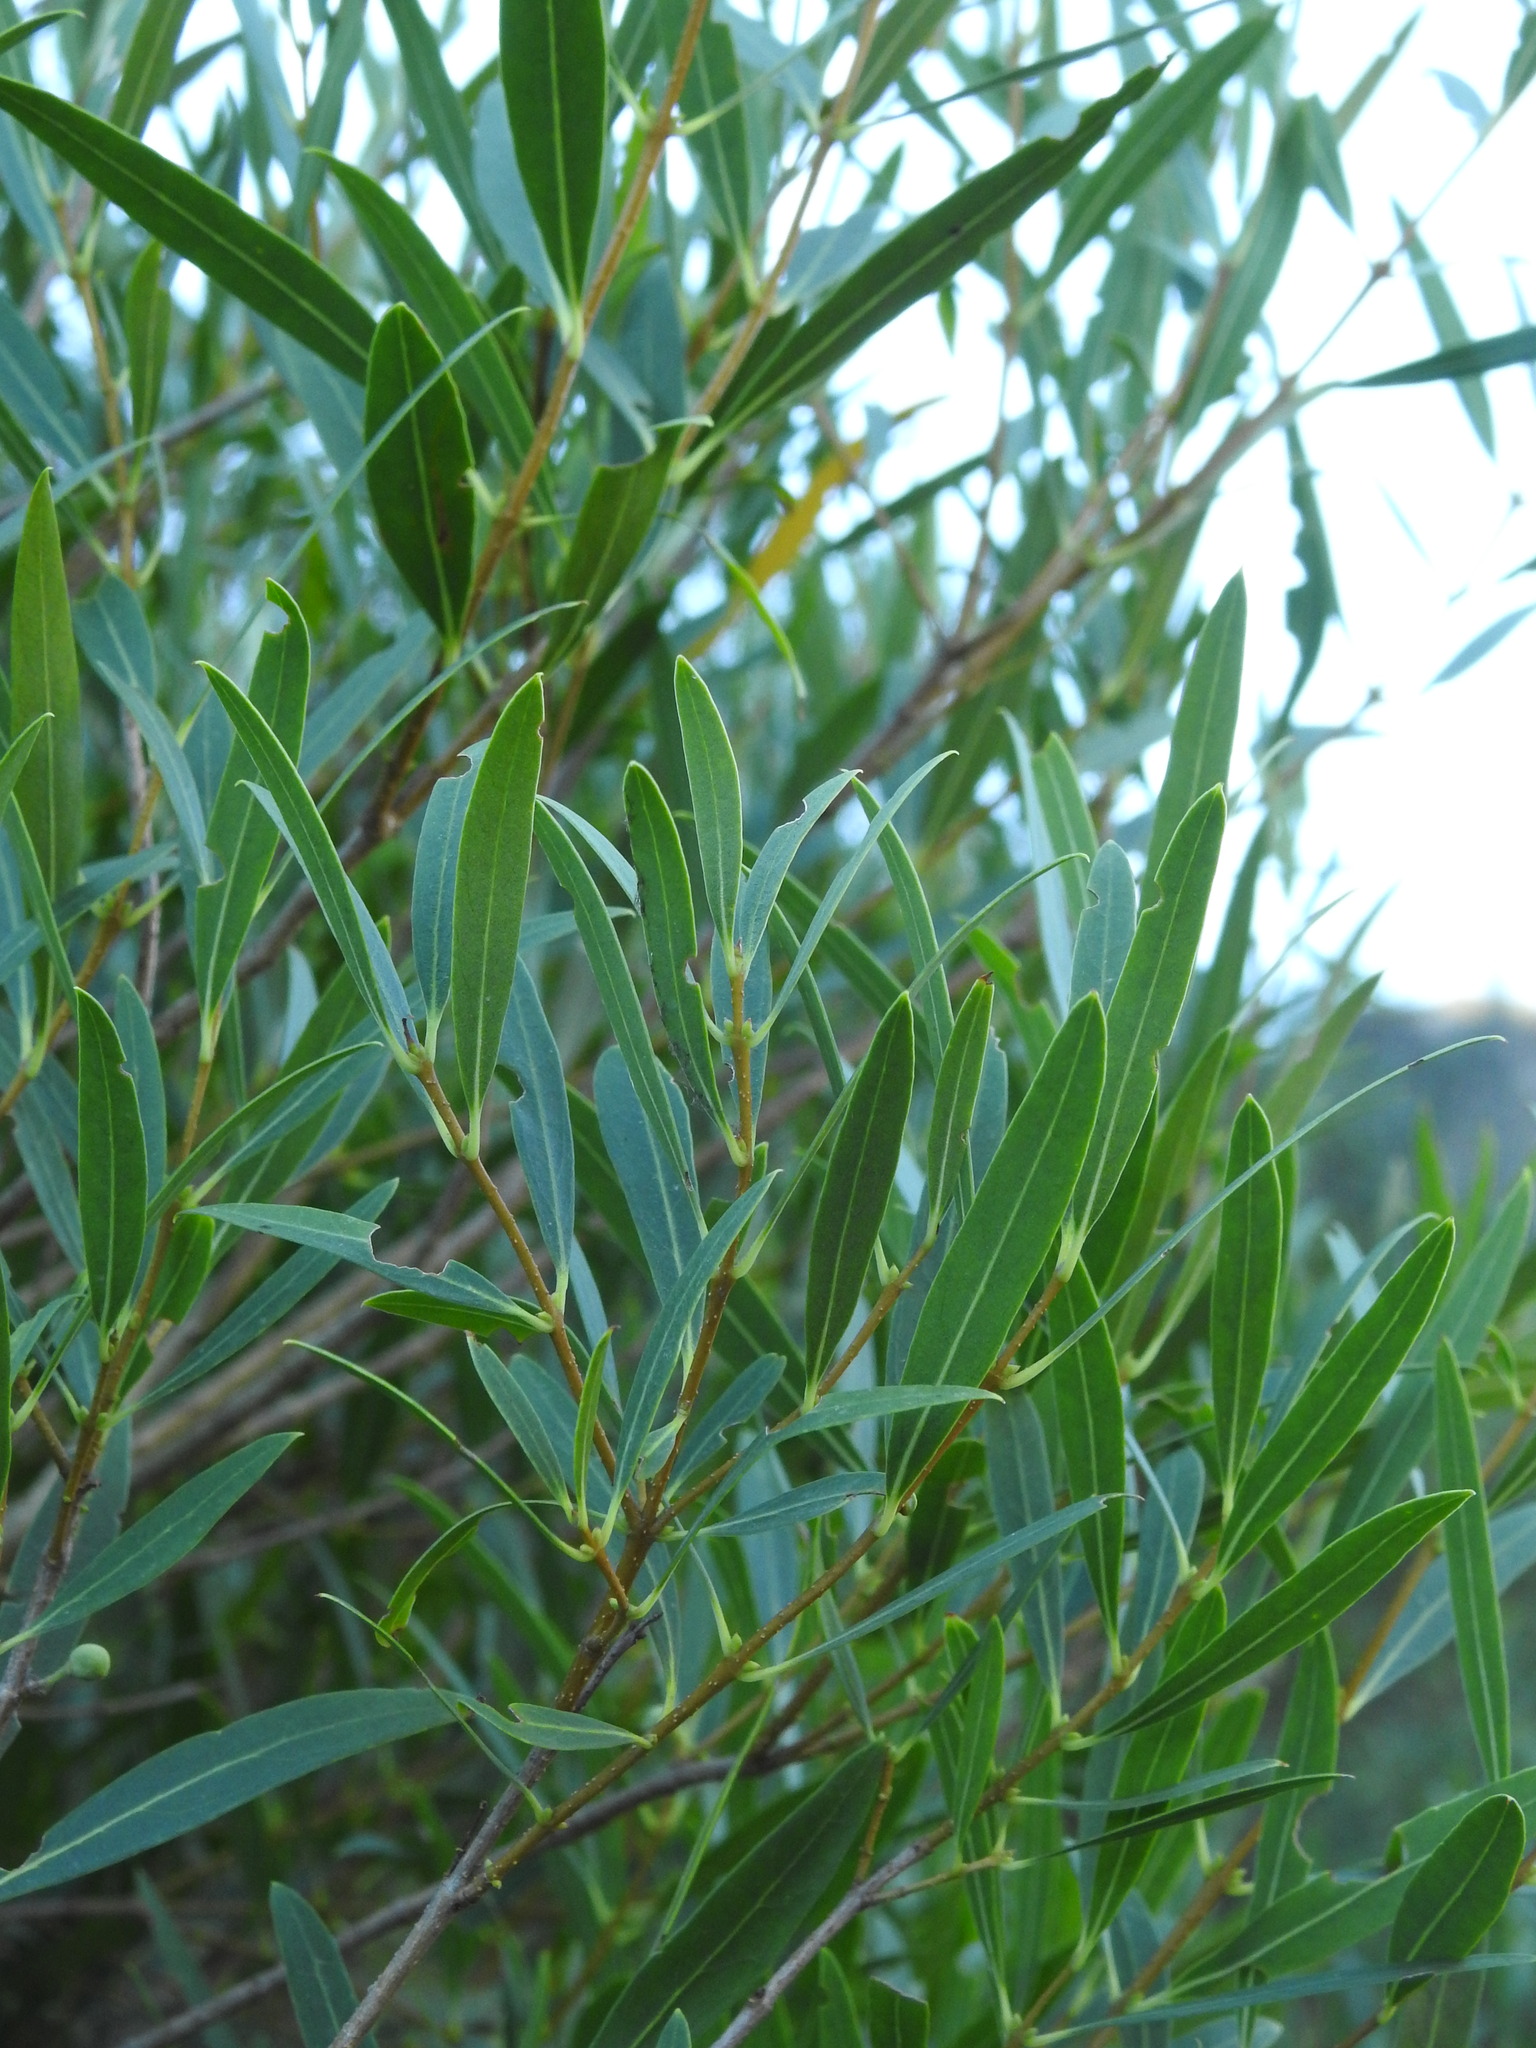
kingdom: Plantae
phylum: Tracheophyta
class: Magnoliopsida
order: Lamiales
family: Oleaceae
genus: Phillyrea
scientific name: Phillyrea angustifolia
